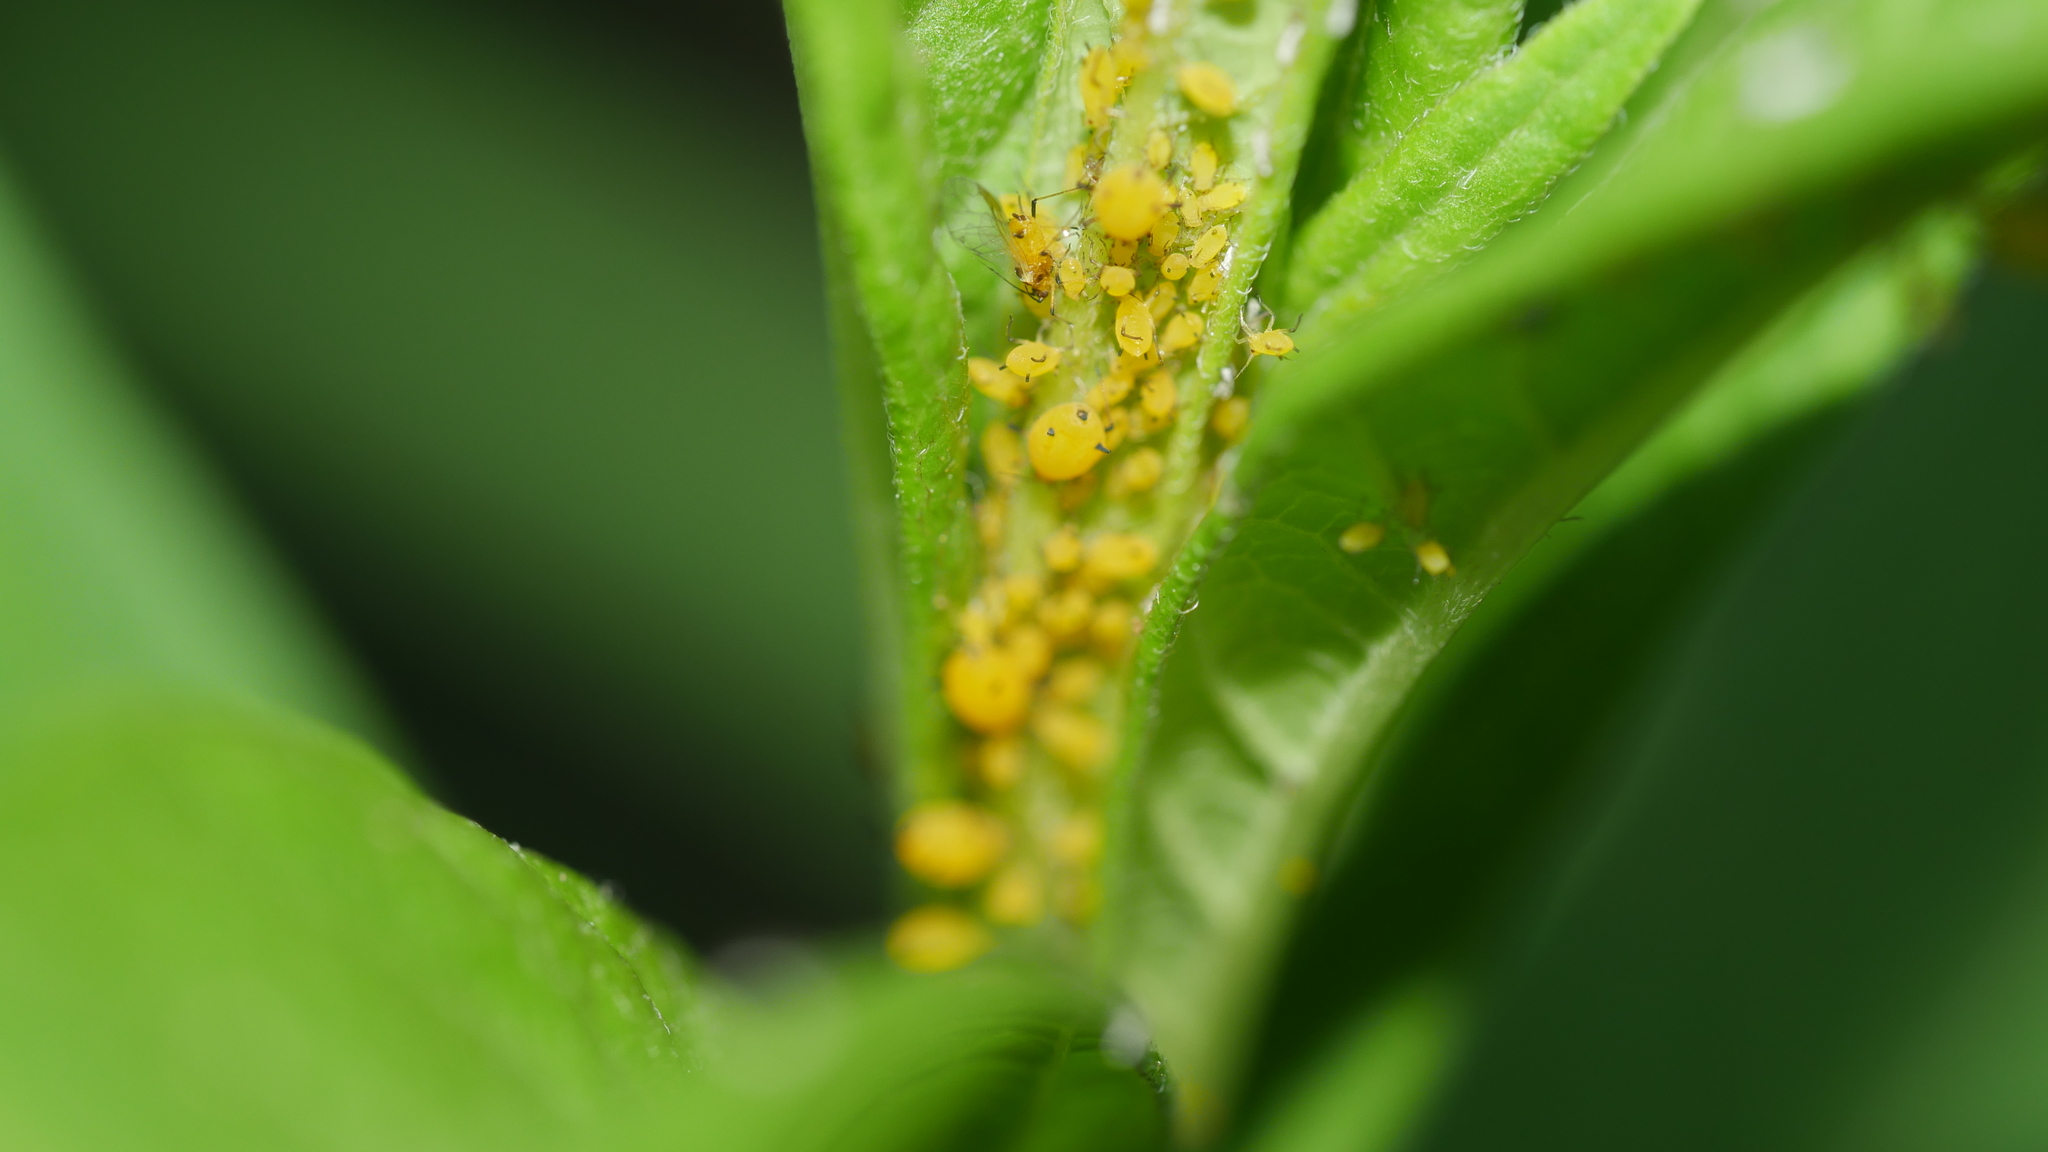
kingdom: Animalia
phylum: Arthropoda
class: Insecta
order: Hemiptera
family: Aphididae
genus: Aphis
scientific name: Aphis nerii
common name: Oleander aphid
